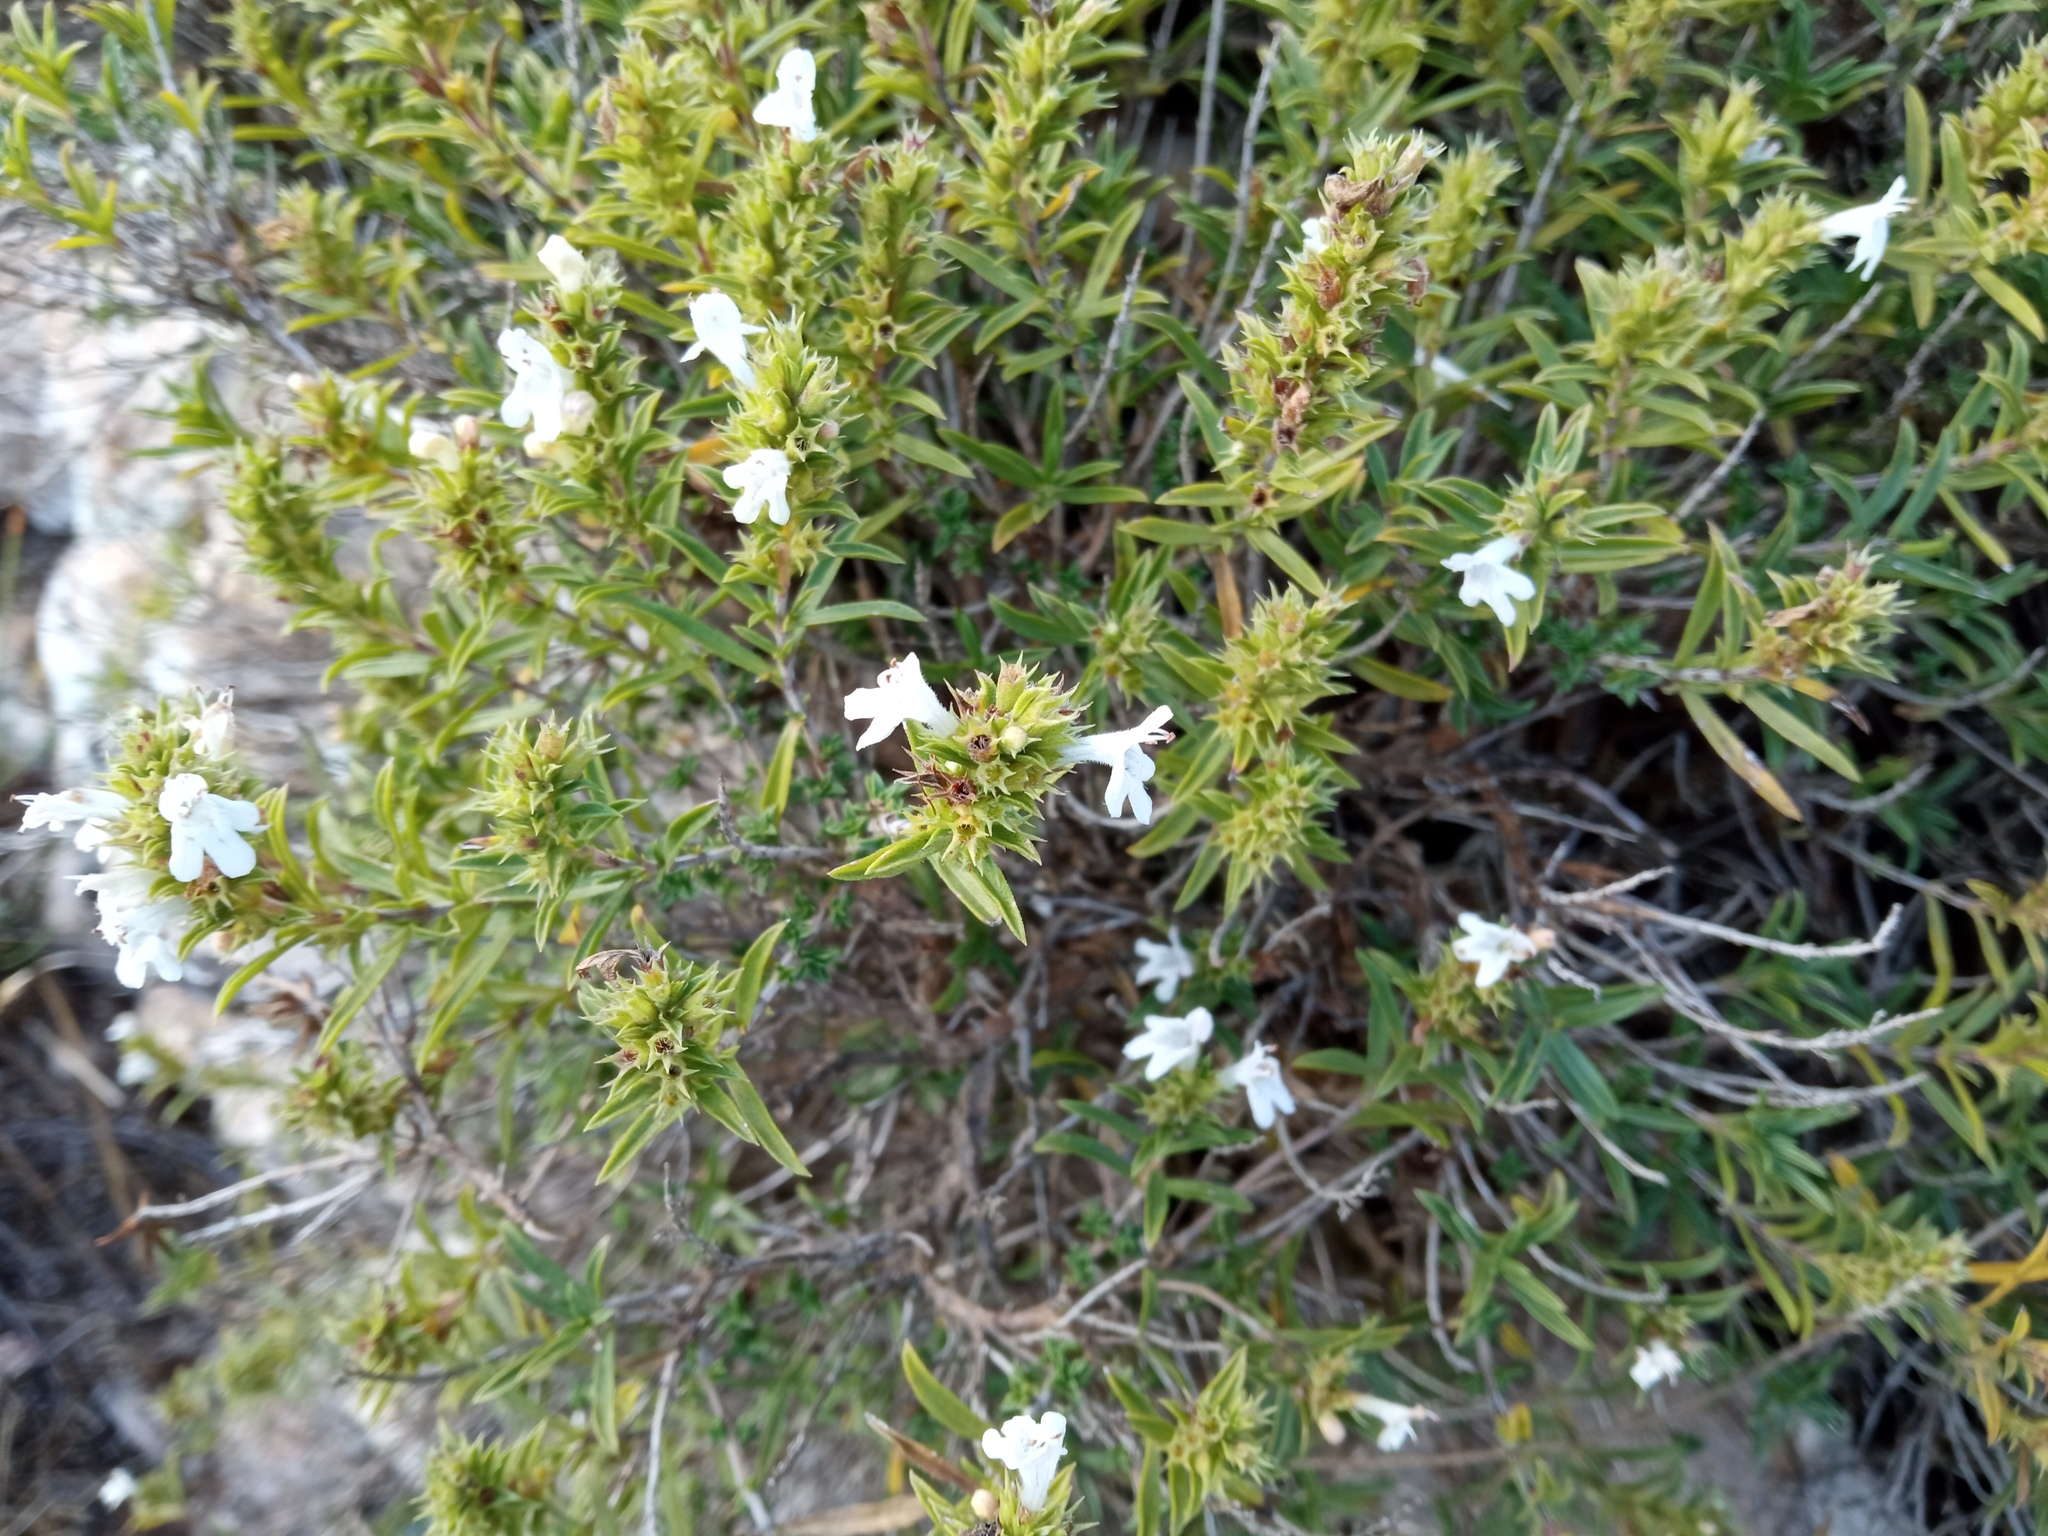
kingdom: Plantae
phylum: Tracheophyta
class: Magnoliopsida
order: Lamiales
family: Lamiaceae
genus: Satureja
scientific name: Satureja montana
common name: Winter savory
